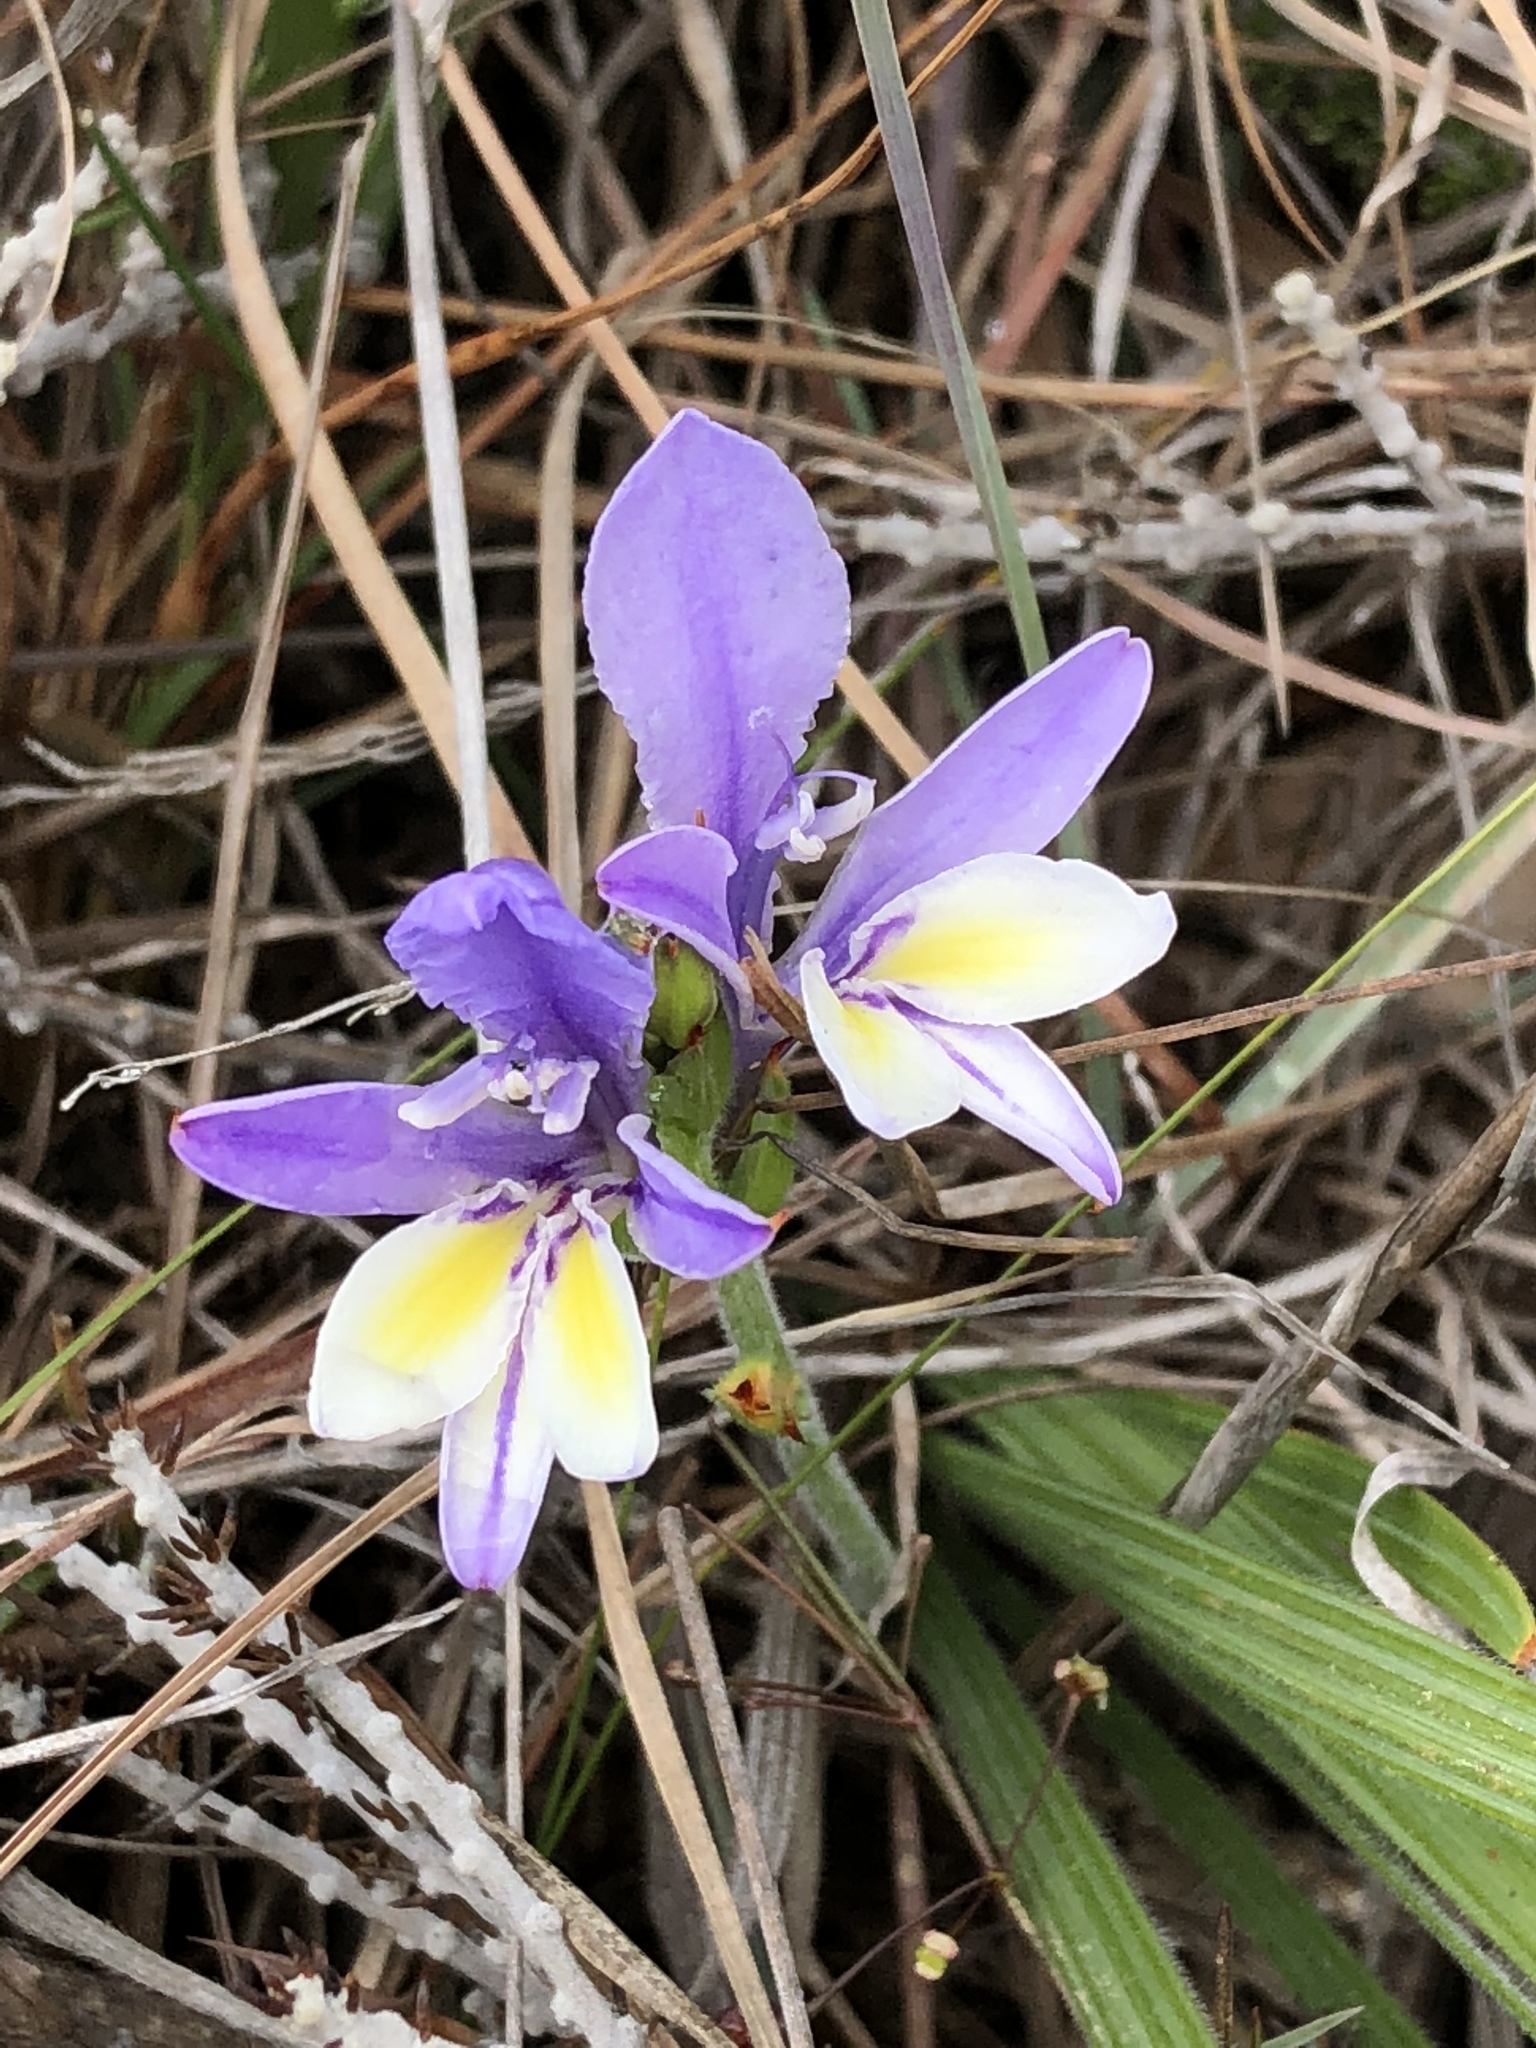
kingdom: Plantae
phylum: Tracheophyta
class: Liliopsida
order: Asparagales
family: Iridaceae
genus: Babiana
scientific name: Babiana patula
